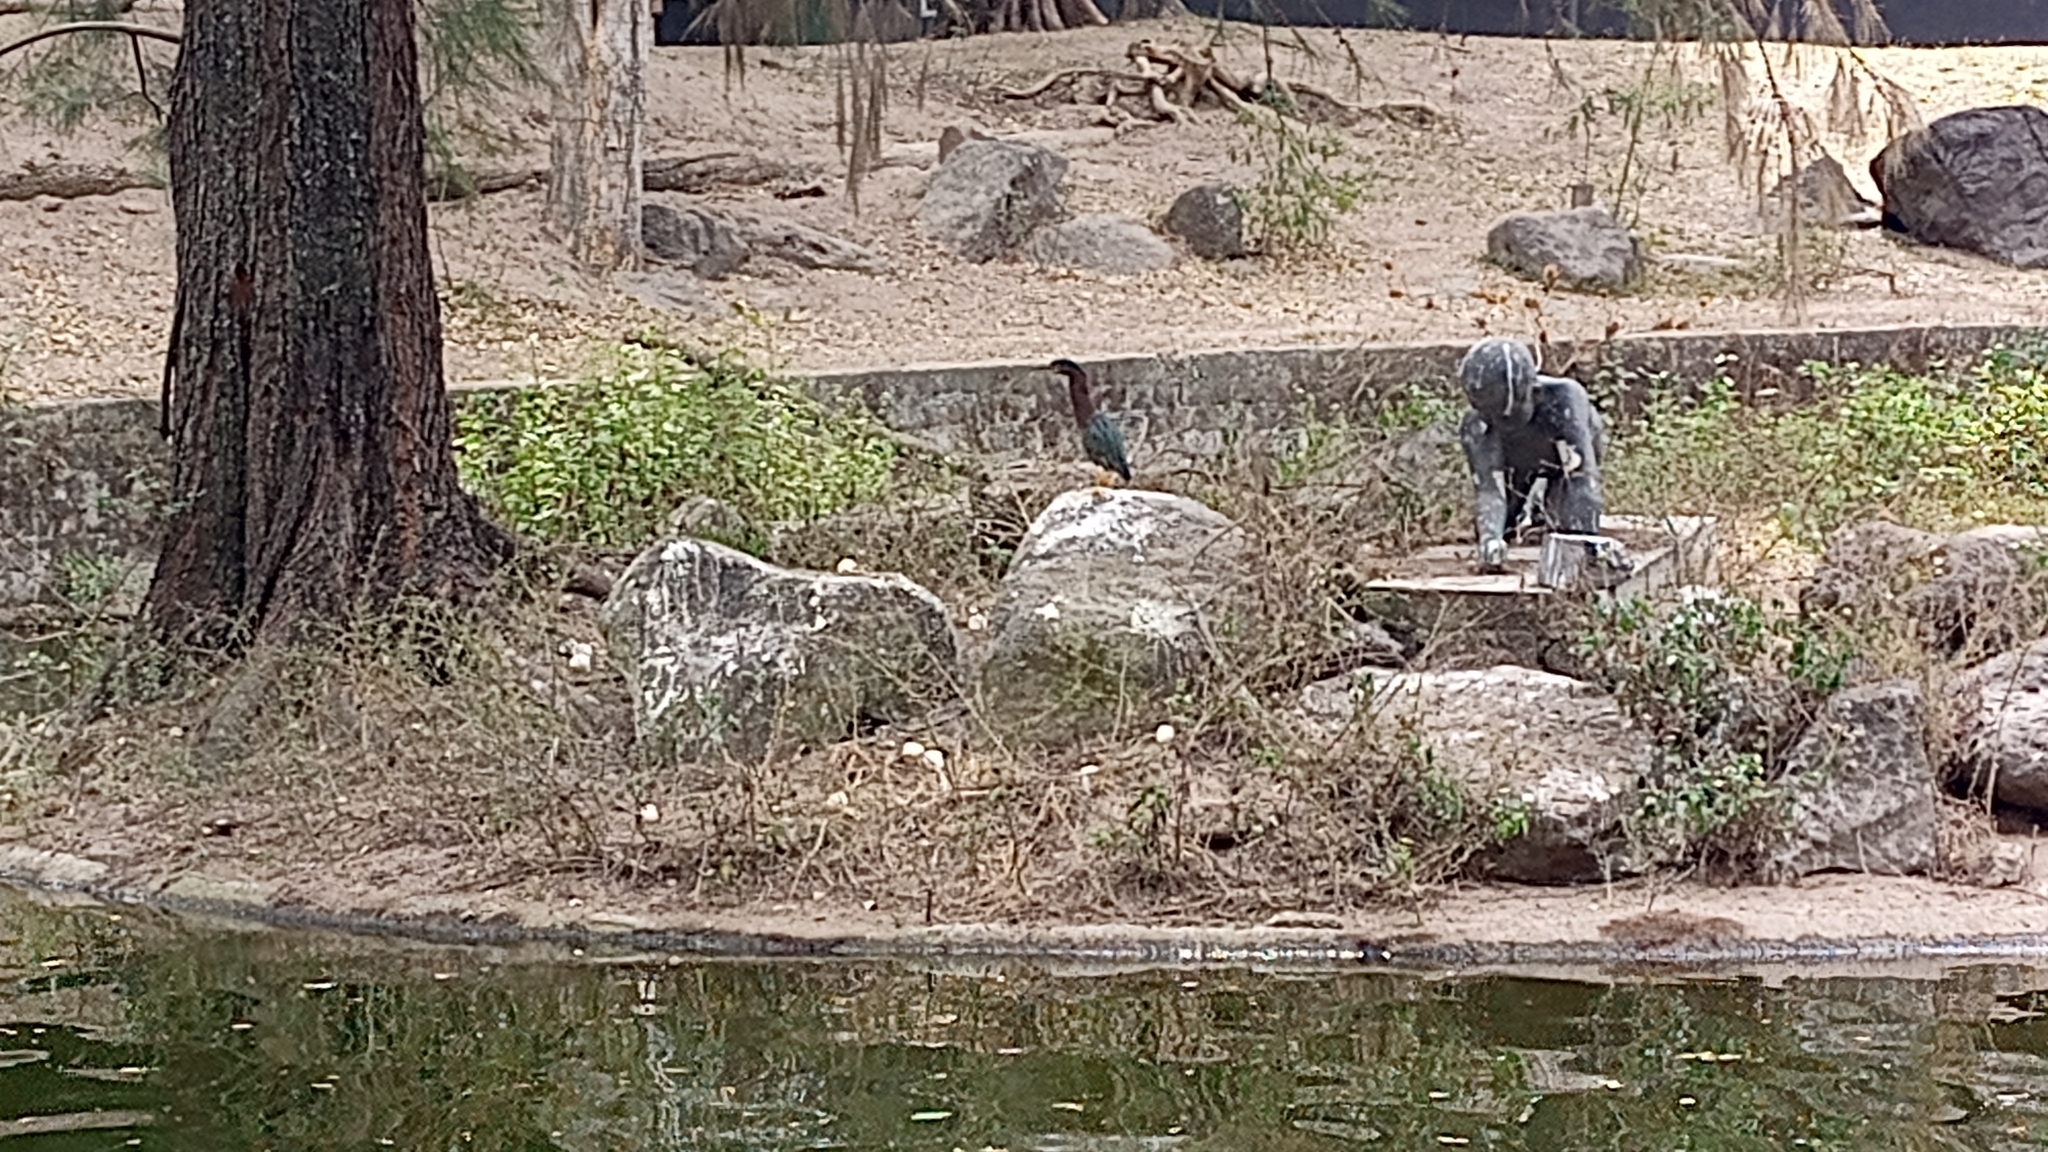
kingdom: Animalia
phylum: Chordata
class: Aves
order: Pelecaniformes
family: Ardeidae
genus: Butorides
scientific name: Butorides virescens
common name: Green heron
